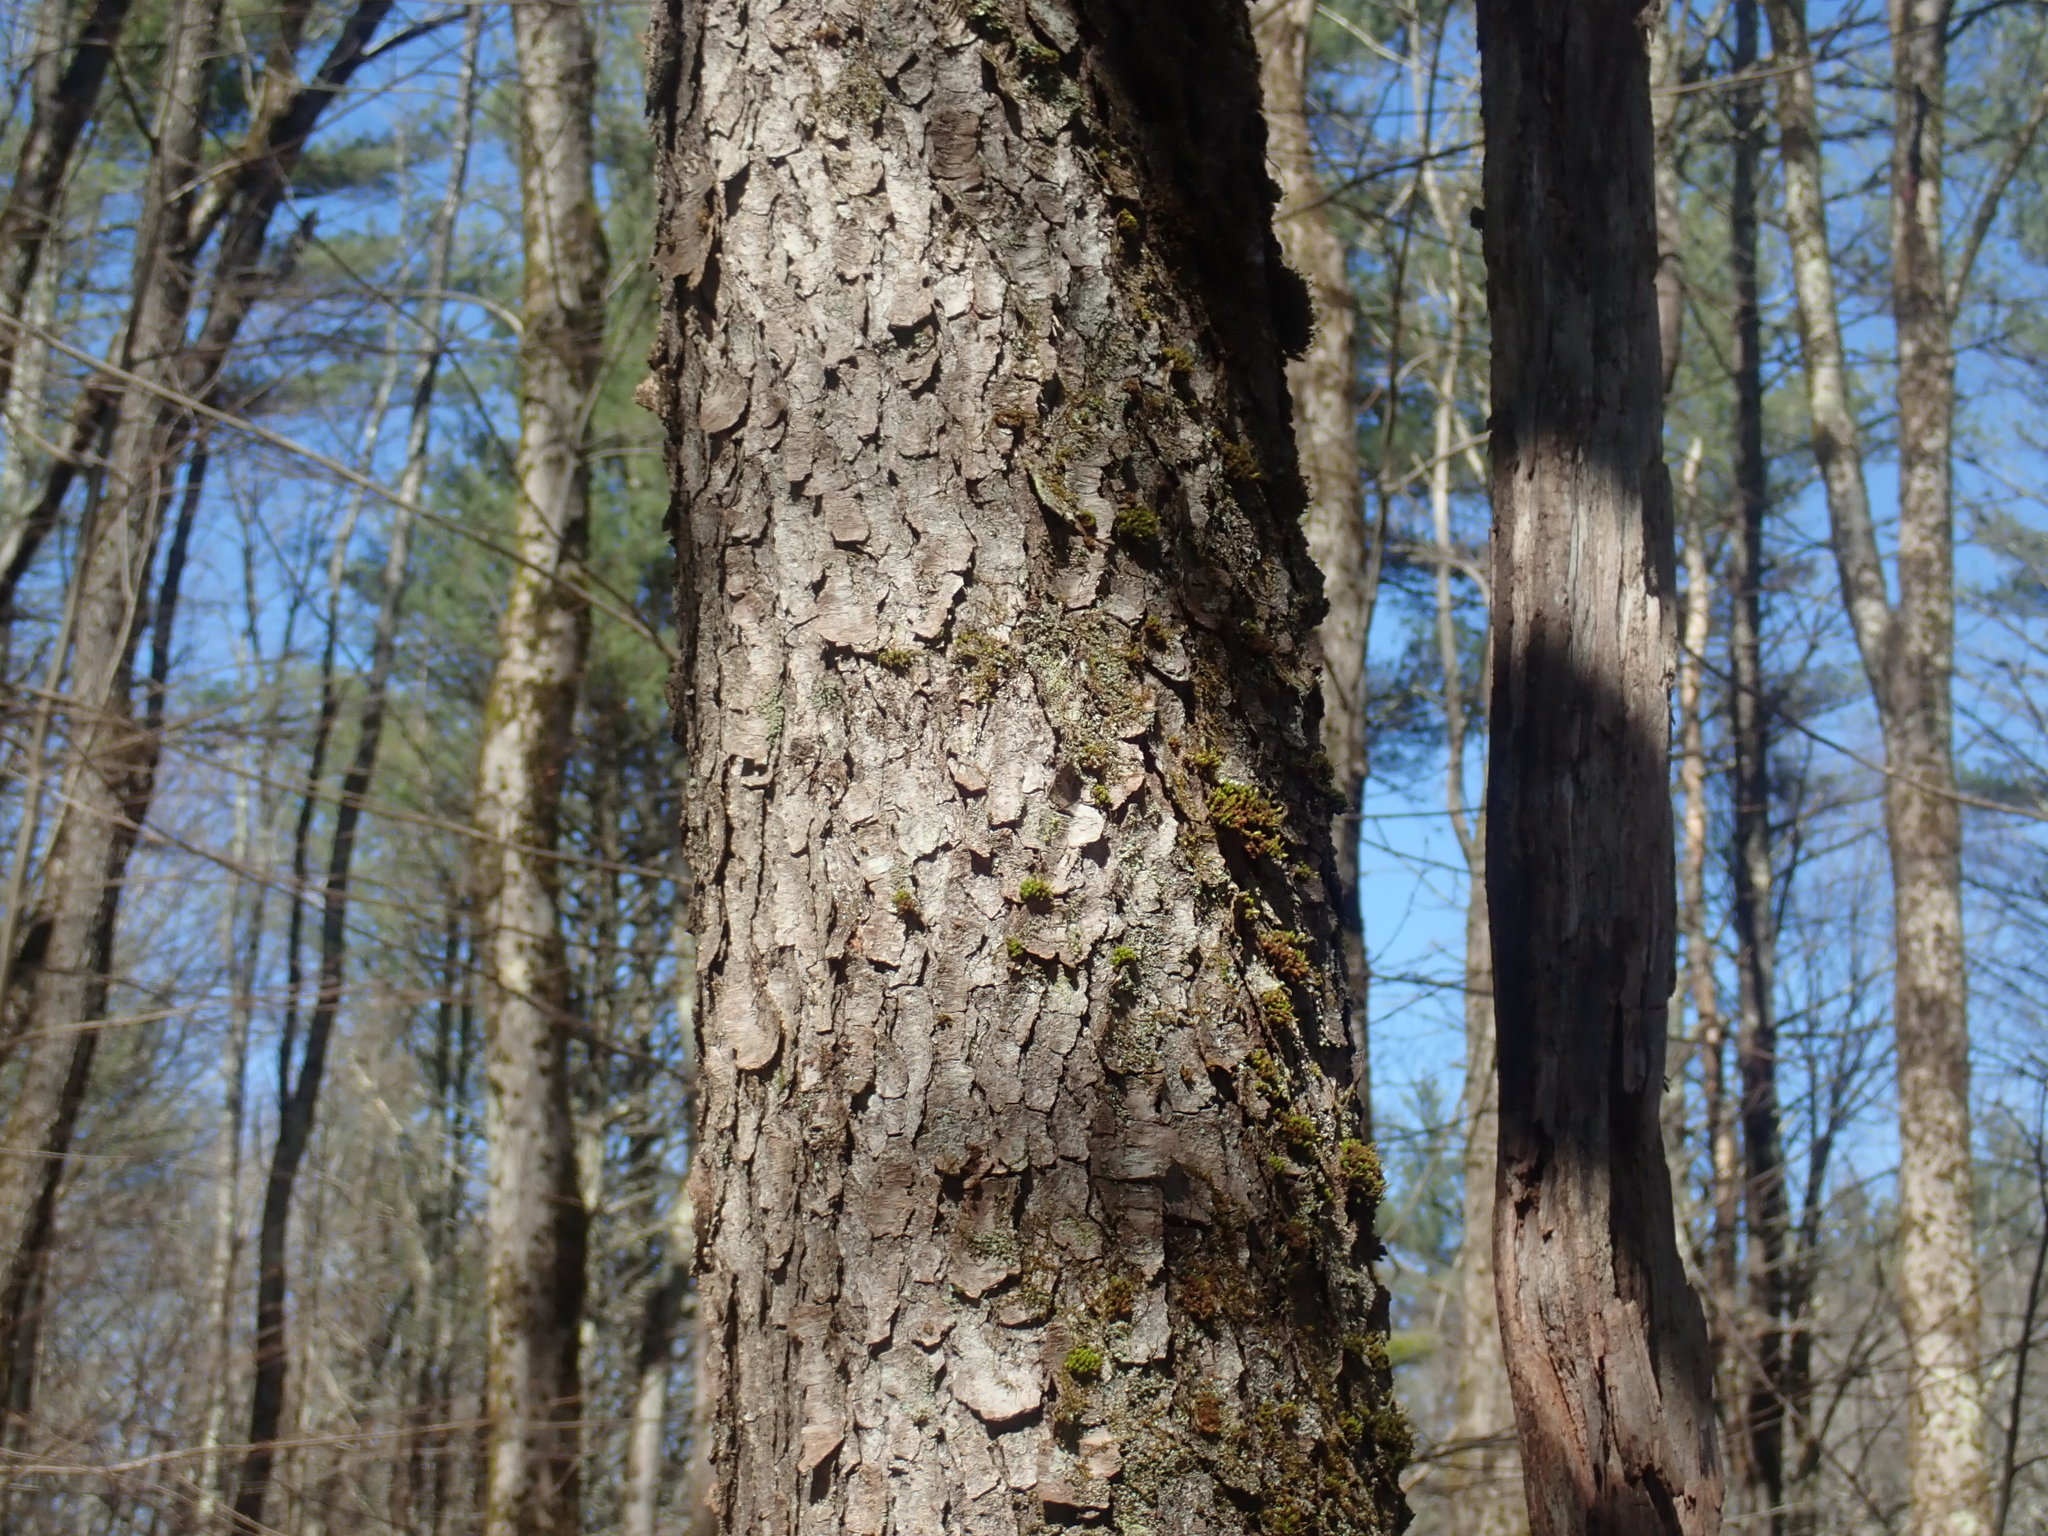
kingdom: Plantae
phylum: Tracheophyta
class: Magnoliopsida
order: Rosales
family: Rosaceae
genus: Prunus
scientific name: Prunus serotina
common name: Black cherry
